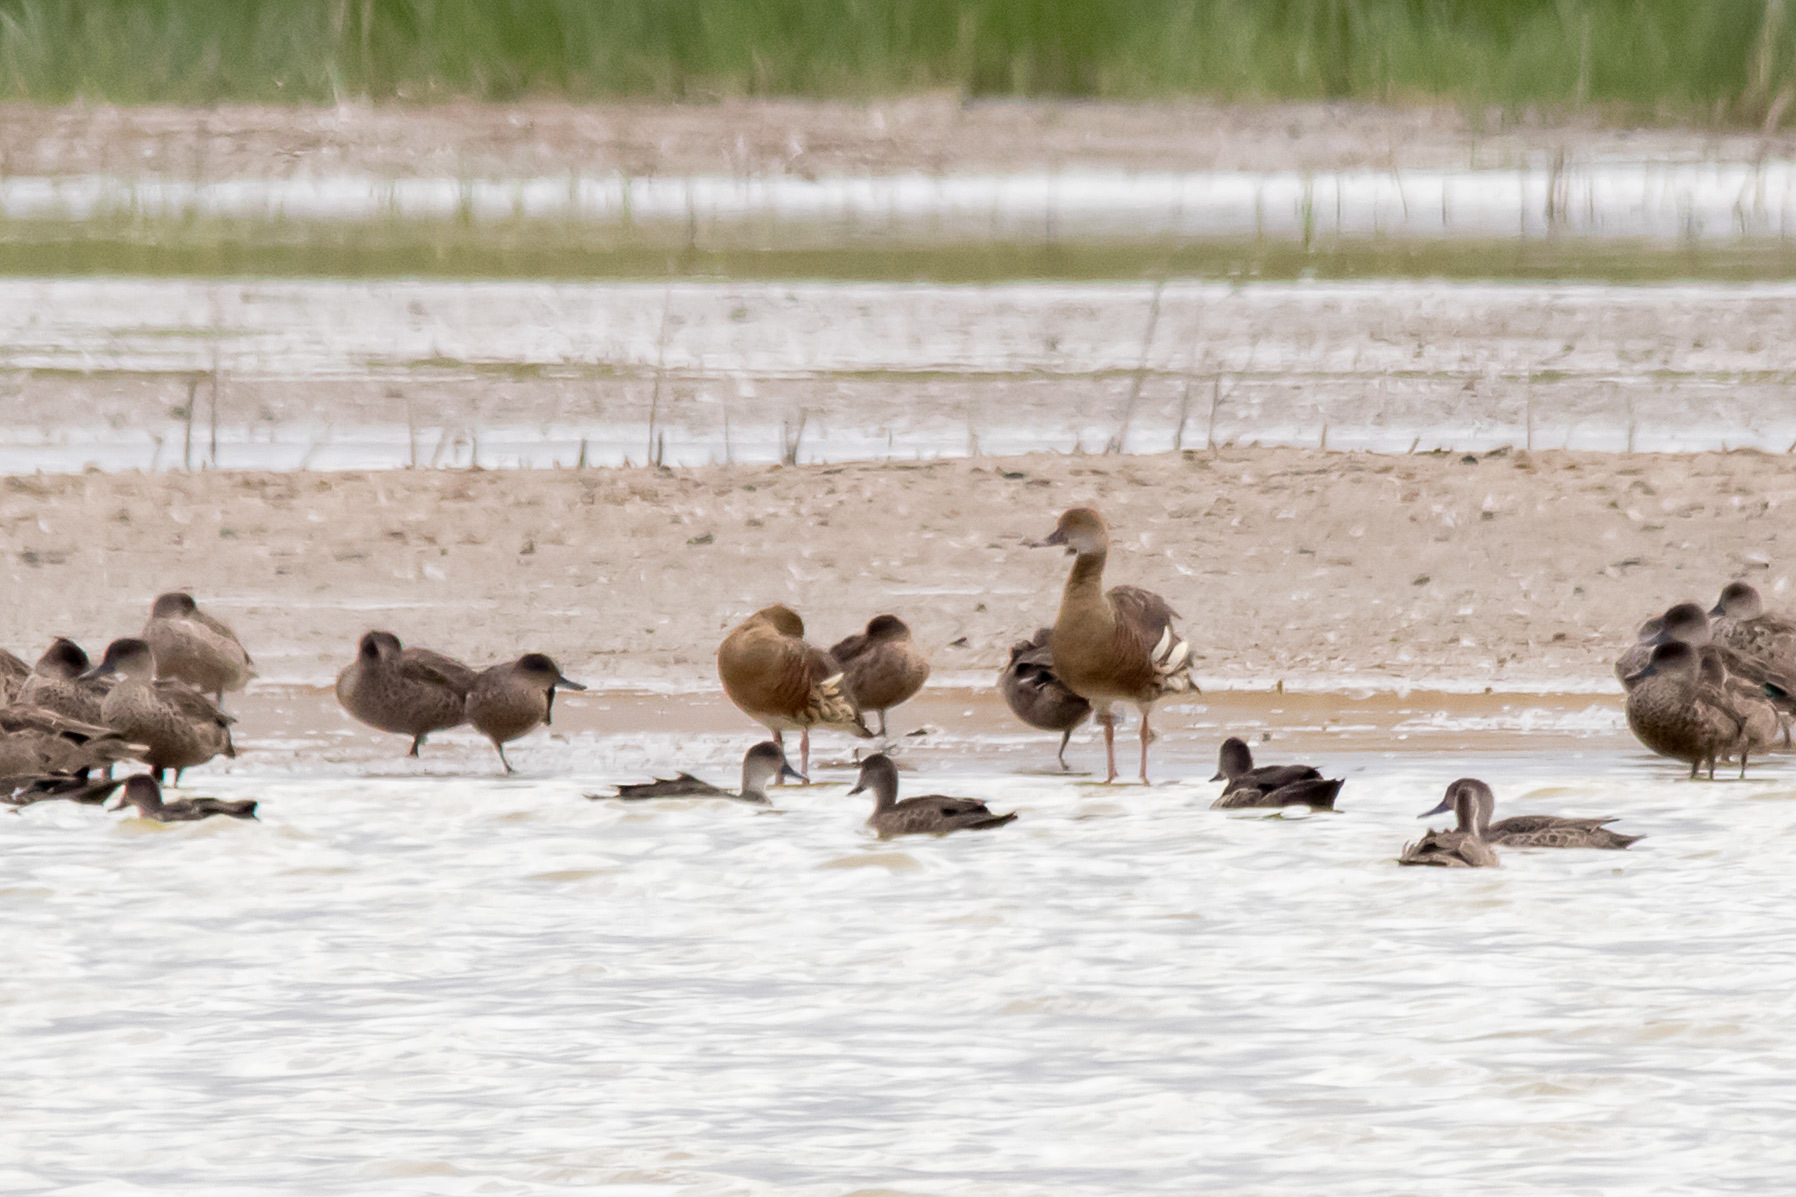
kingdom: Animalia
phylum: Chordata
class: Aves
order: Anseriformes
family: Anatidae
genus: Dendrocygna
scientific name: Dendrocygna eytoni
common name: Plumed whistling-duck
